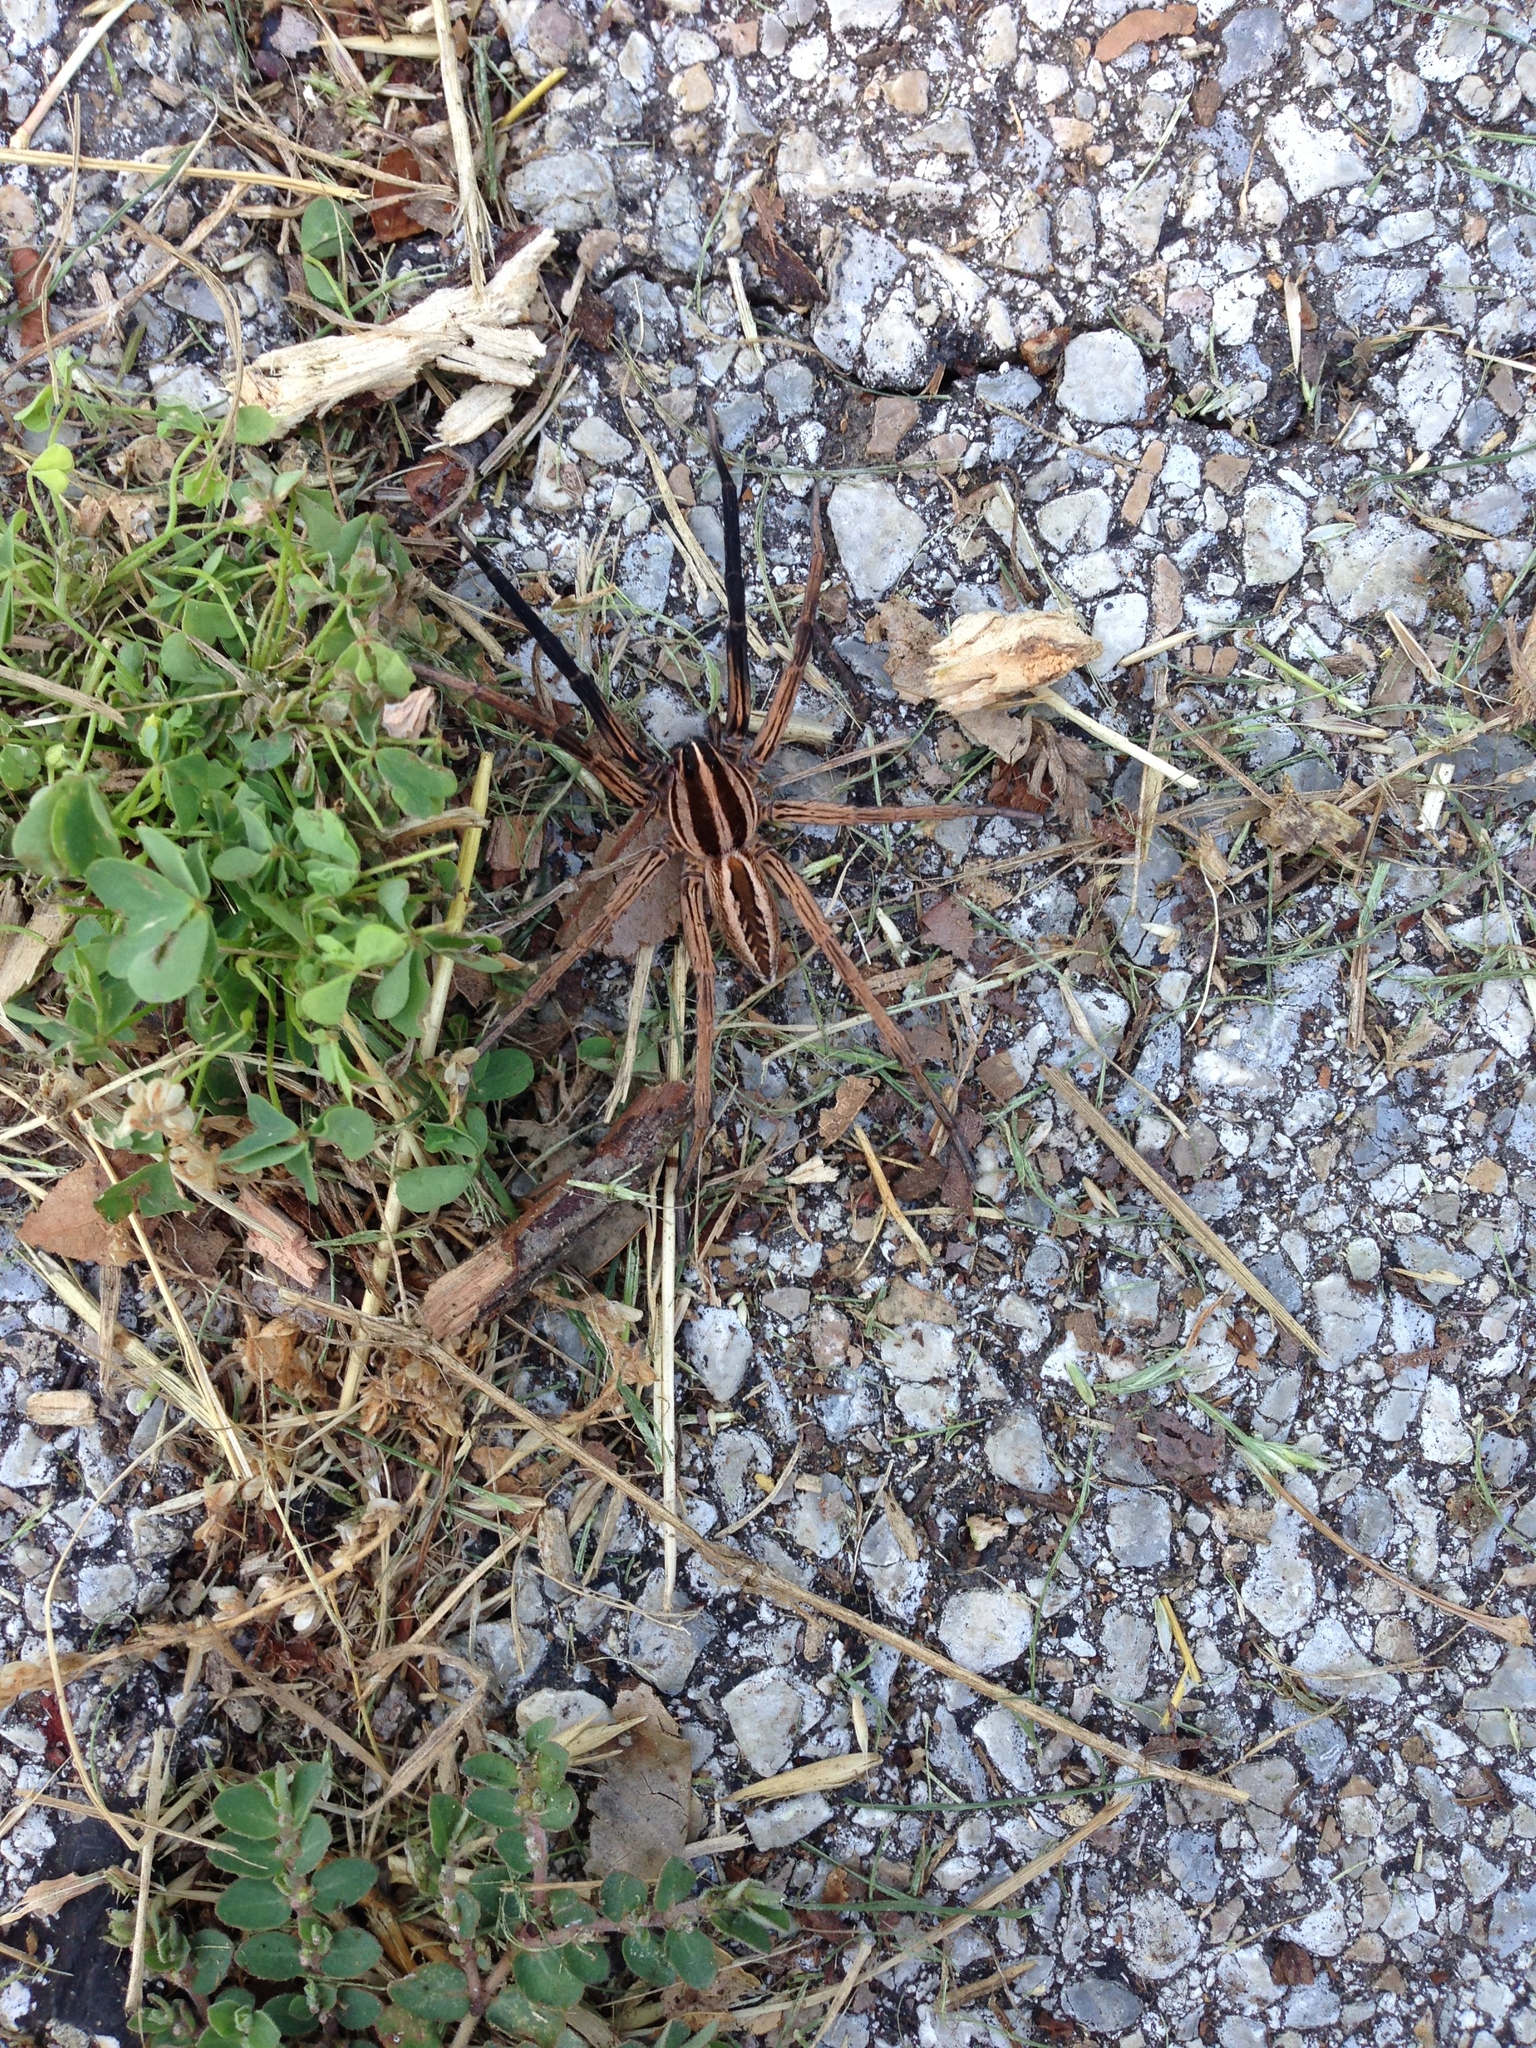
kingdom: Animalia
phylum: Arthropoda
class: Arachnida
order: Araneae
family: Lycosidae
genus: Rabidosa
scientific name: Rabidosa rabida
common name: Rabid wolf spider
